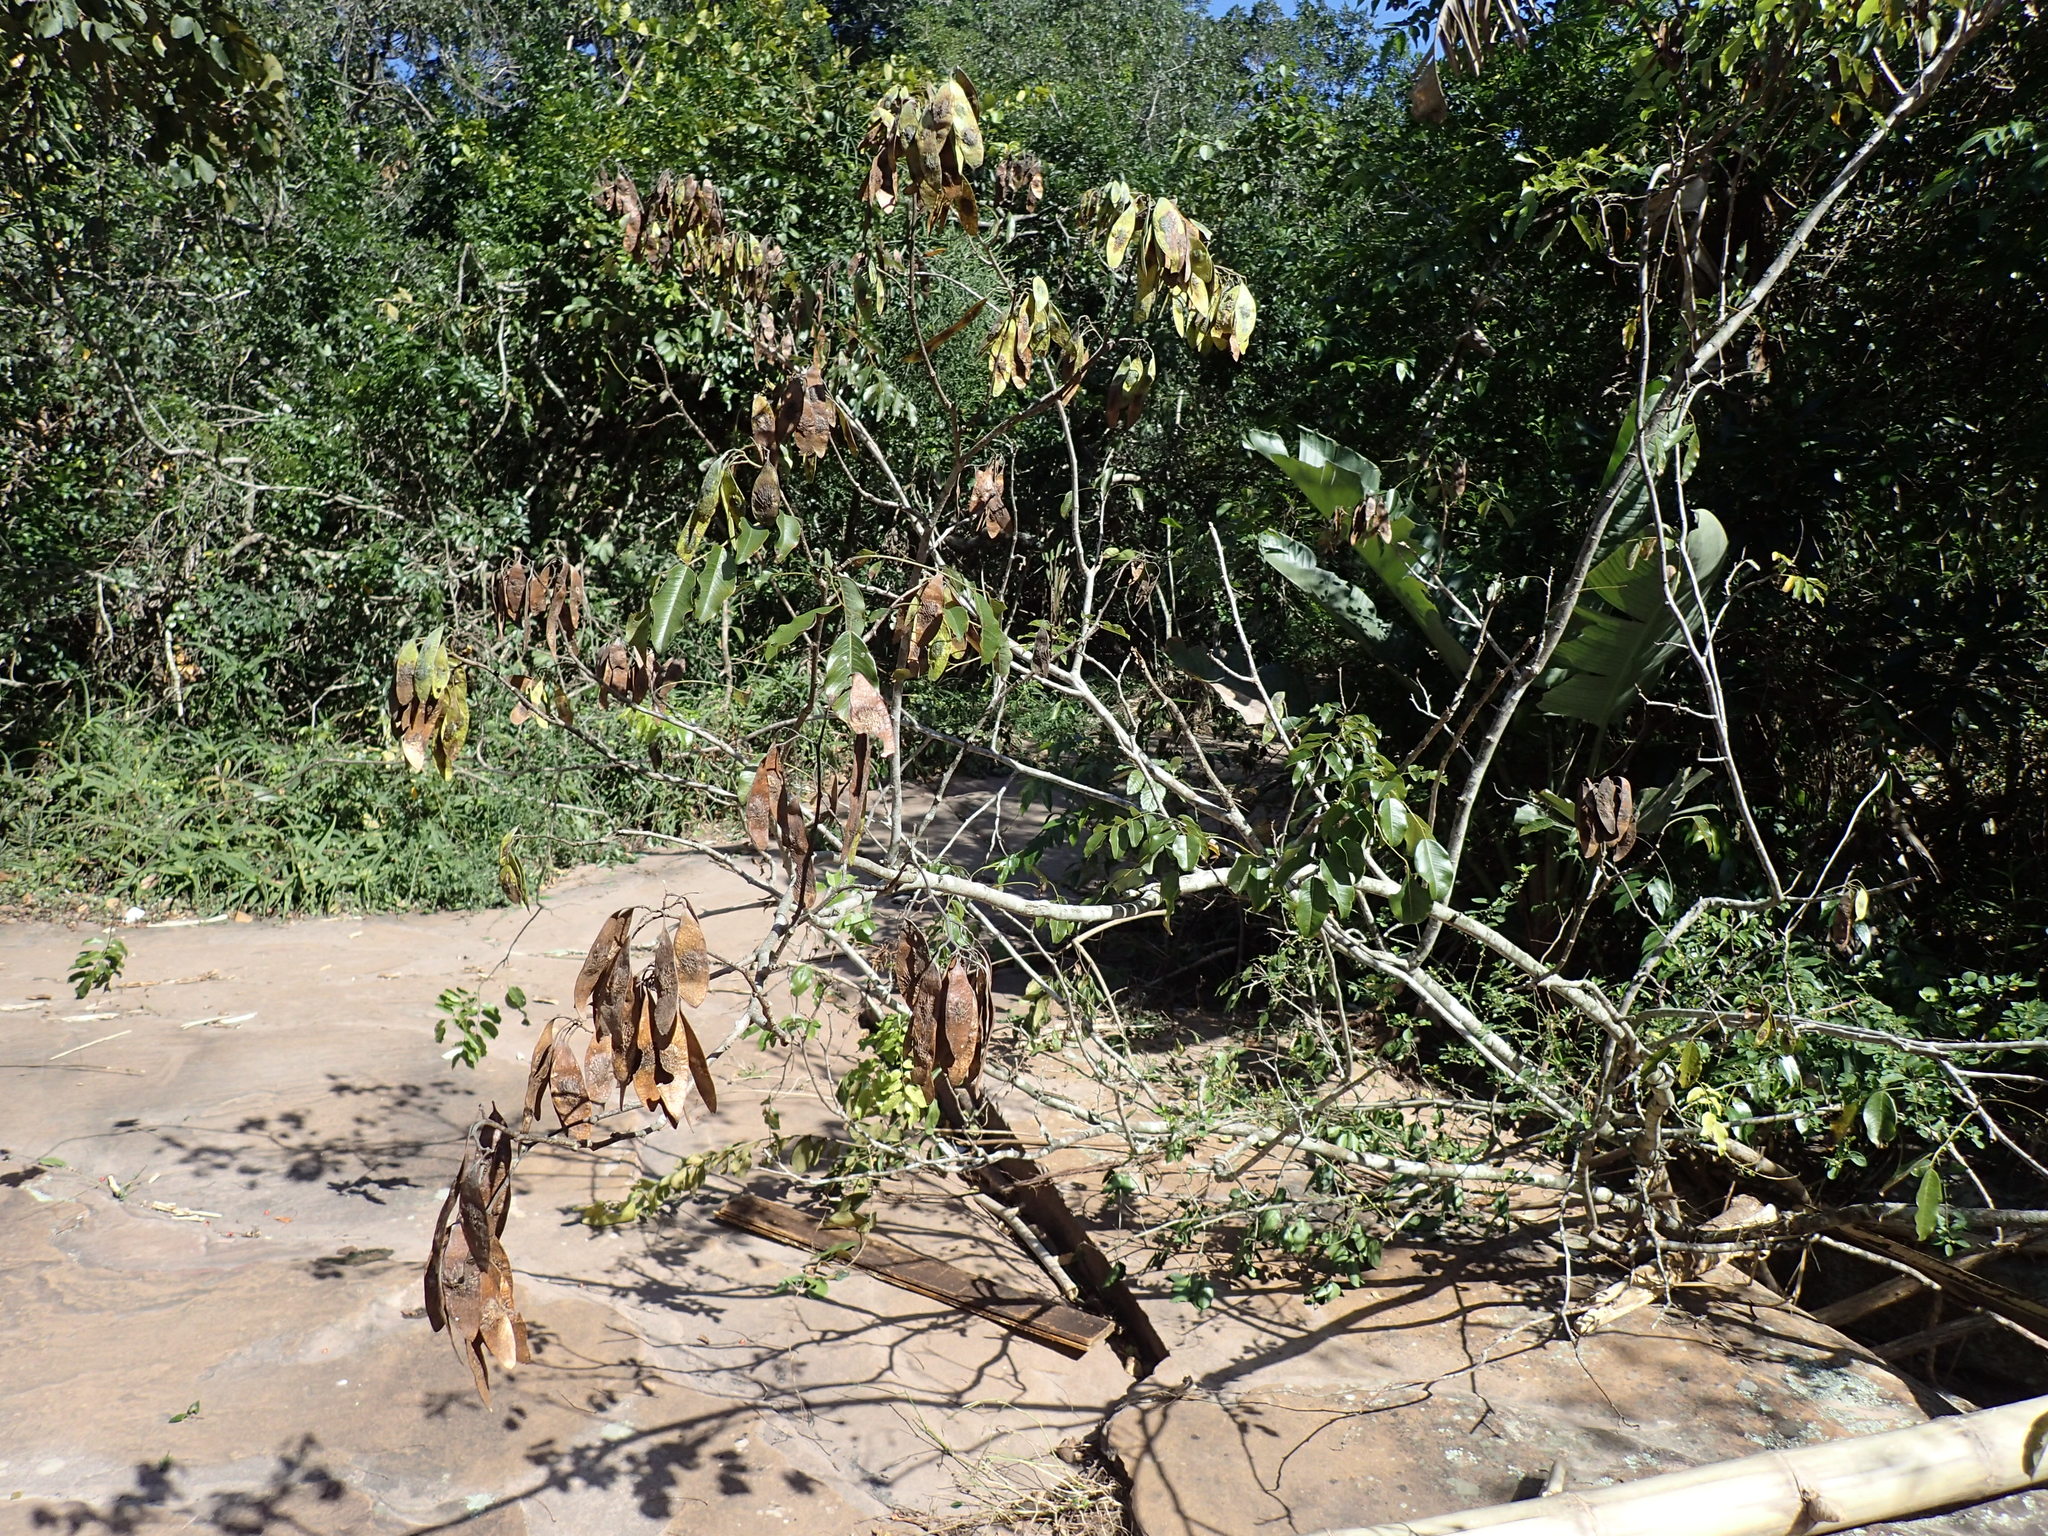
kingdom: Plantae
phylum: Tracheophyta
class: Magnoliopsida
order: Fabales
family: Fabaceae
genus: Dalbergia
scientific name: Dalbergia obovata
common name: Climbing flat-bean
